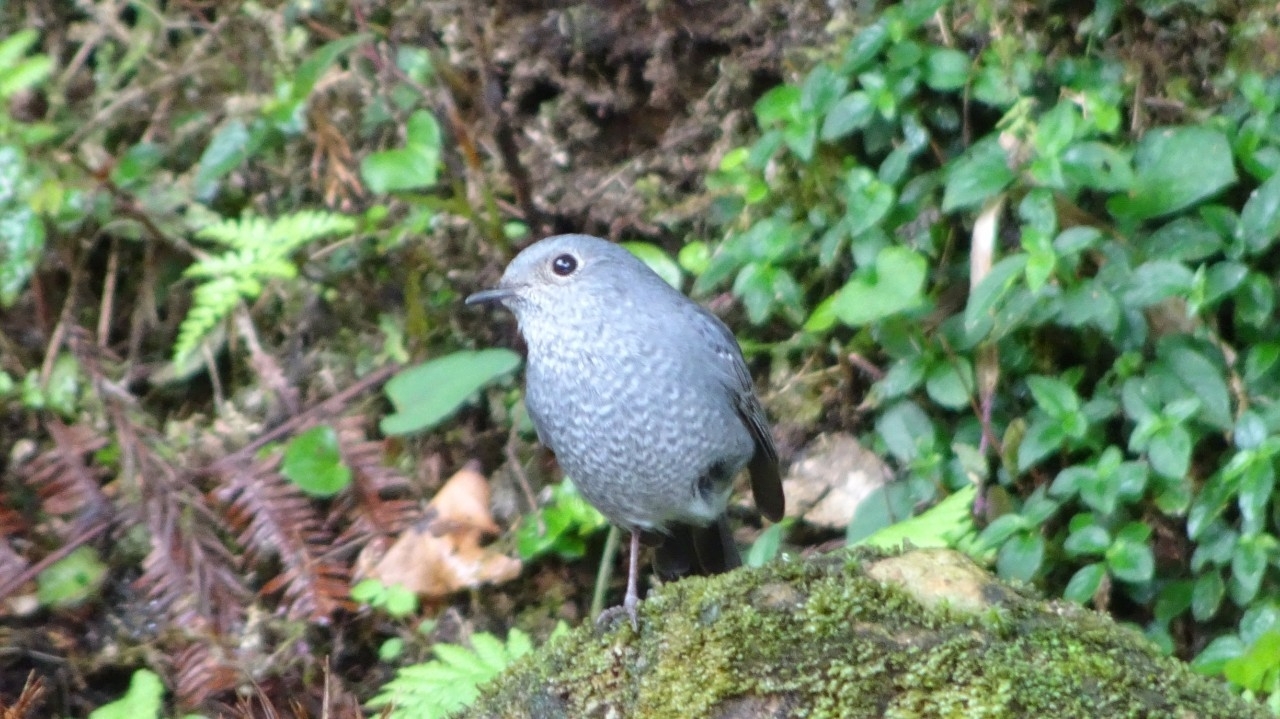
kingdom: Animalia
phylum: Chordata
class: Aves
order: Passeriformes
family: Muscicapidae
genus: Phoenicurus
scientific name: Phoenicurus fuliginosus
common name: Plumbeous water redstart
